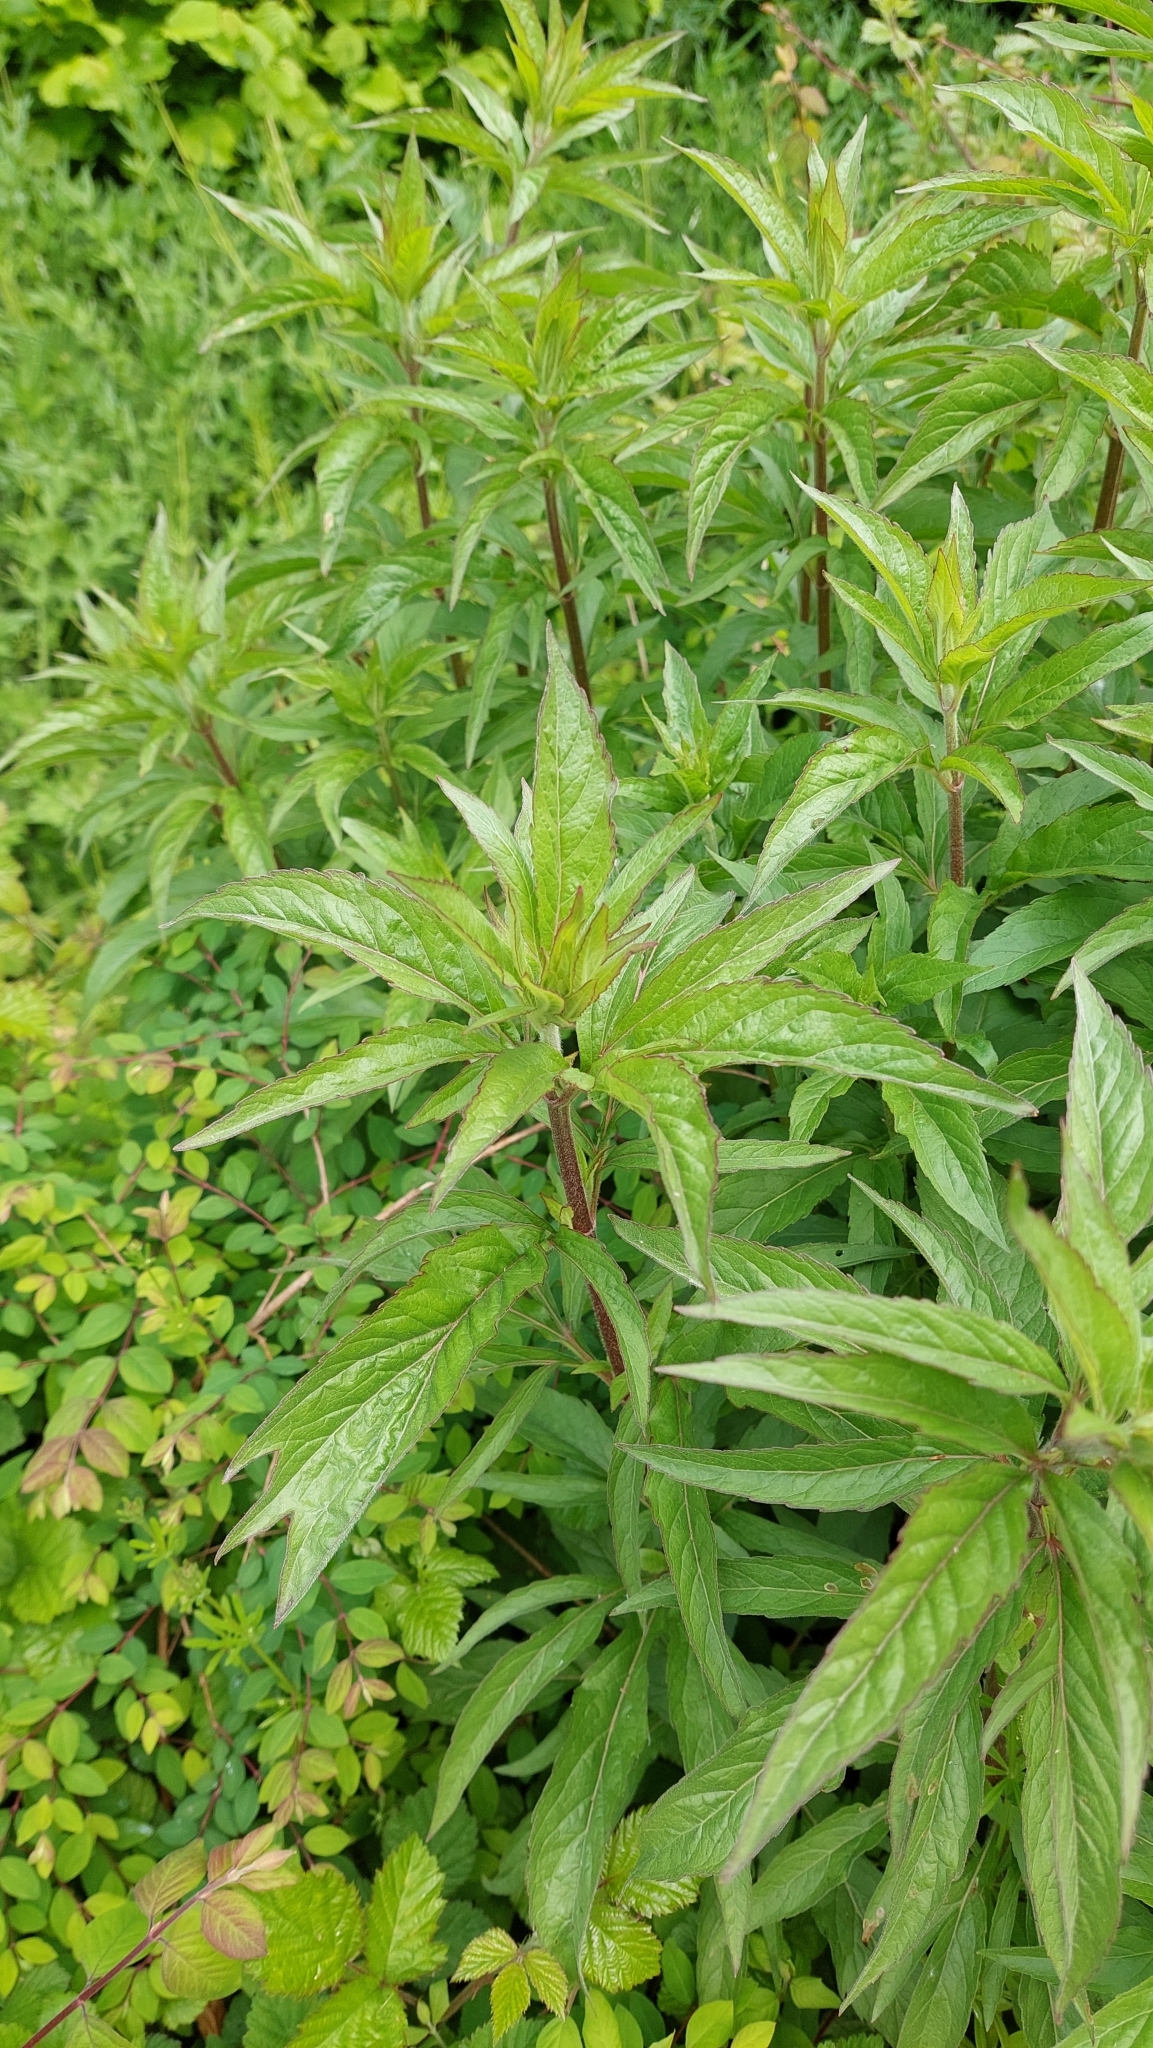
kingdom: Plantae
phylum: Tracheophyta
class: Magnoliopsida
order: Asterales
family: Asteraceae
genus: Eupatorium
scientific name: Eupatorium cannabinum
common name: Hemp-agrimony
